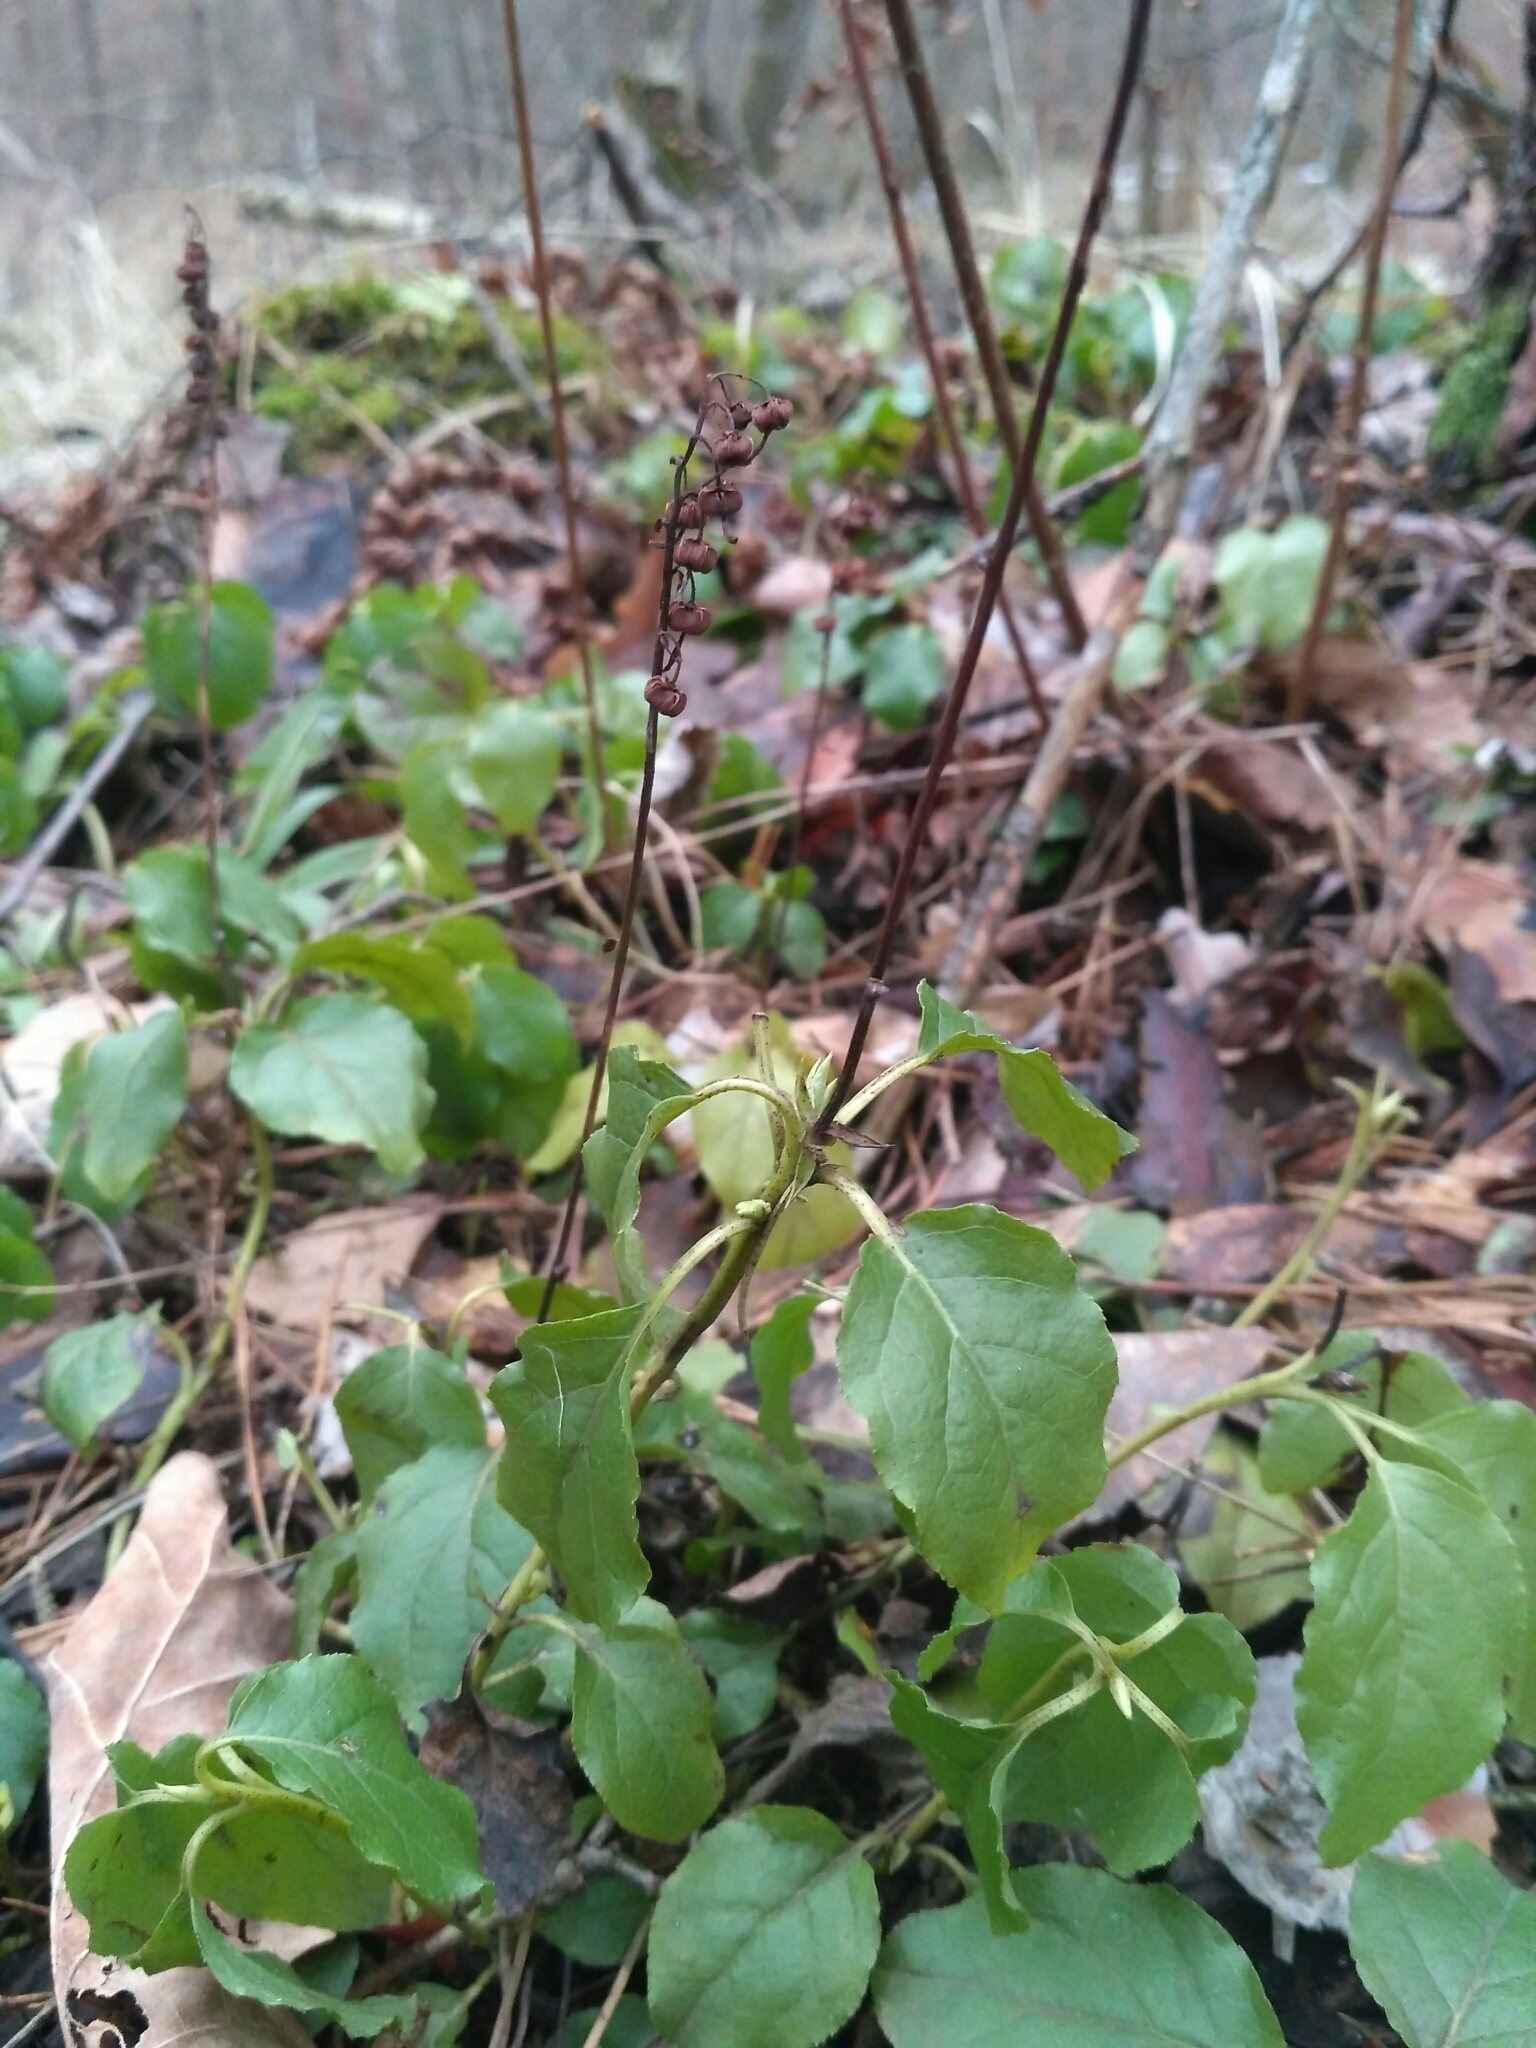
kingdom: Plantae
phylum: Tracheophyta
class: Magnoliopsida
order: Ericales
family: Ericaceae
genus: Orthilia
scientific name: Orthilia secunda
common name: One-sided orthilia
